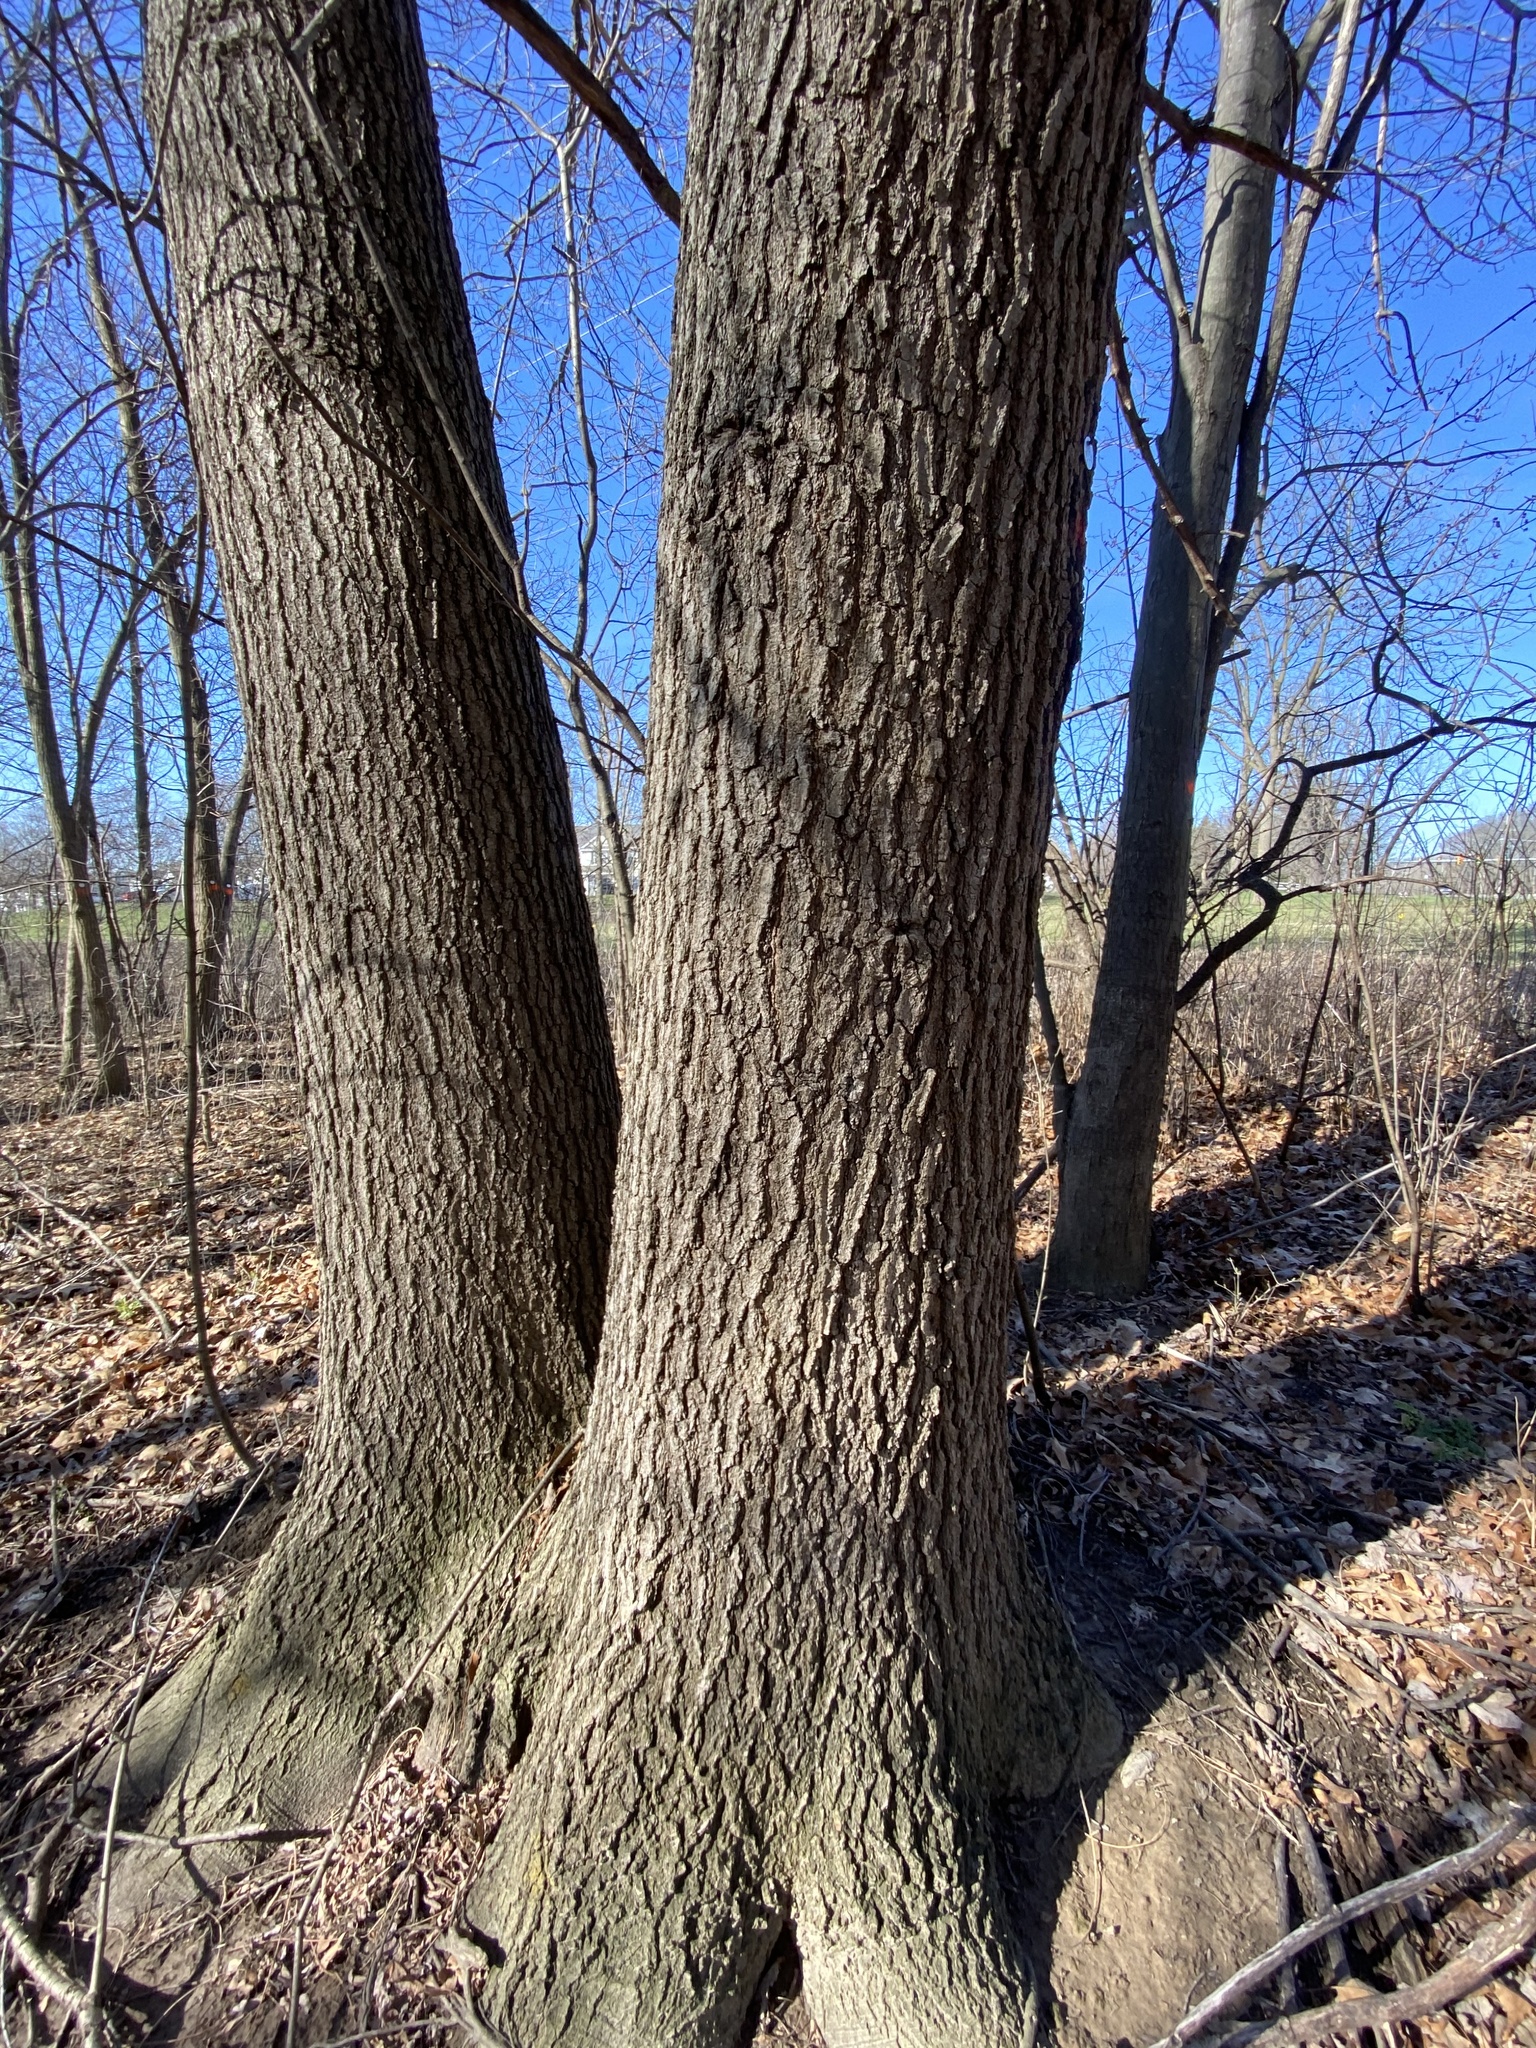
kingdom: Plantae
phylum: Tracheophyta
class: Magnoliopsida
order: Fagales
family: Fagaceae
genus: Quercus
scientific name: Quercus rubra
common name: Red oak
